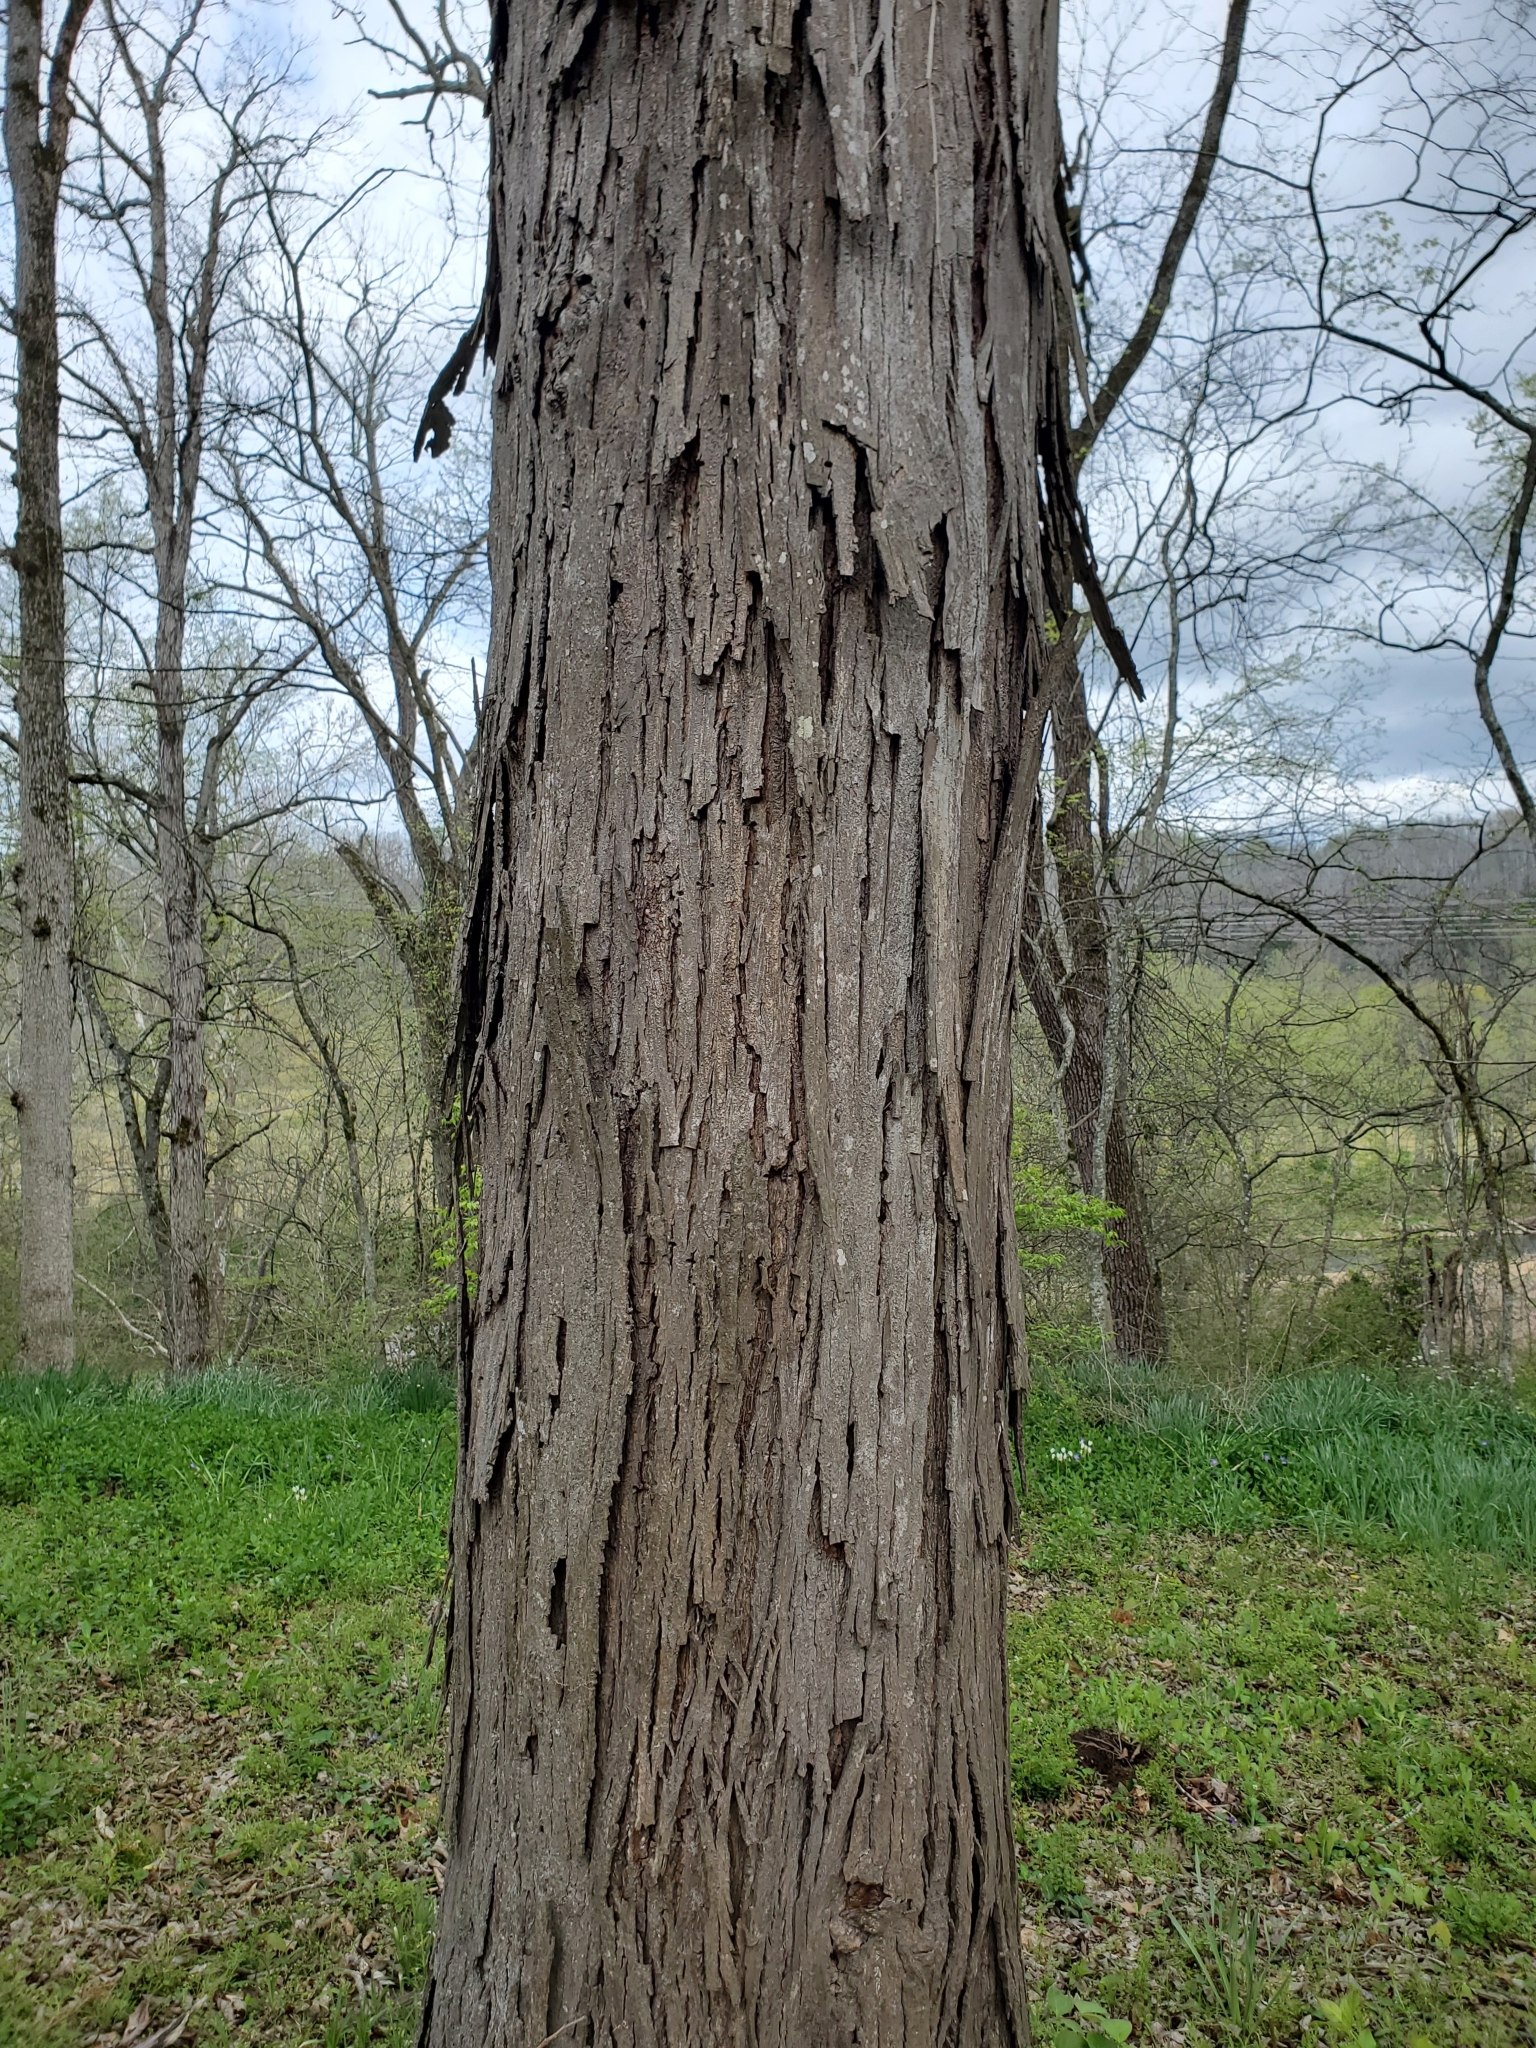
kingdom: Plantae
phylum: Tracheophyta
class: Magnoliopsida
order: Fagales
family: Juglandaceae
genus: Carya
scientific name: Carya ovata
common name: Shagbark hickory
